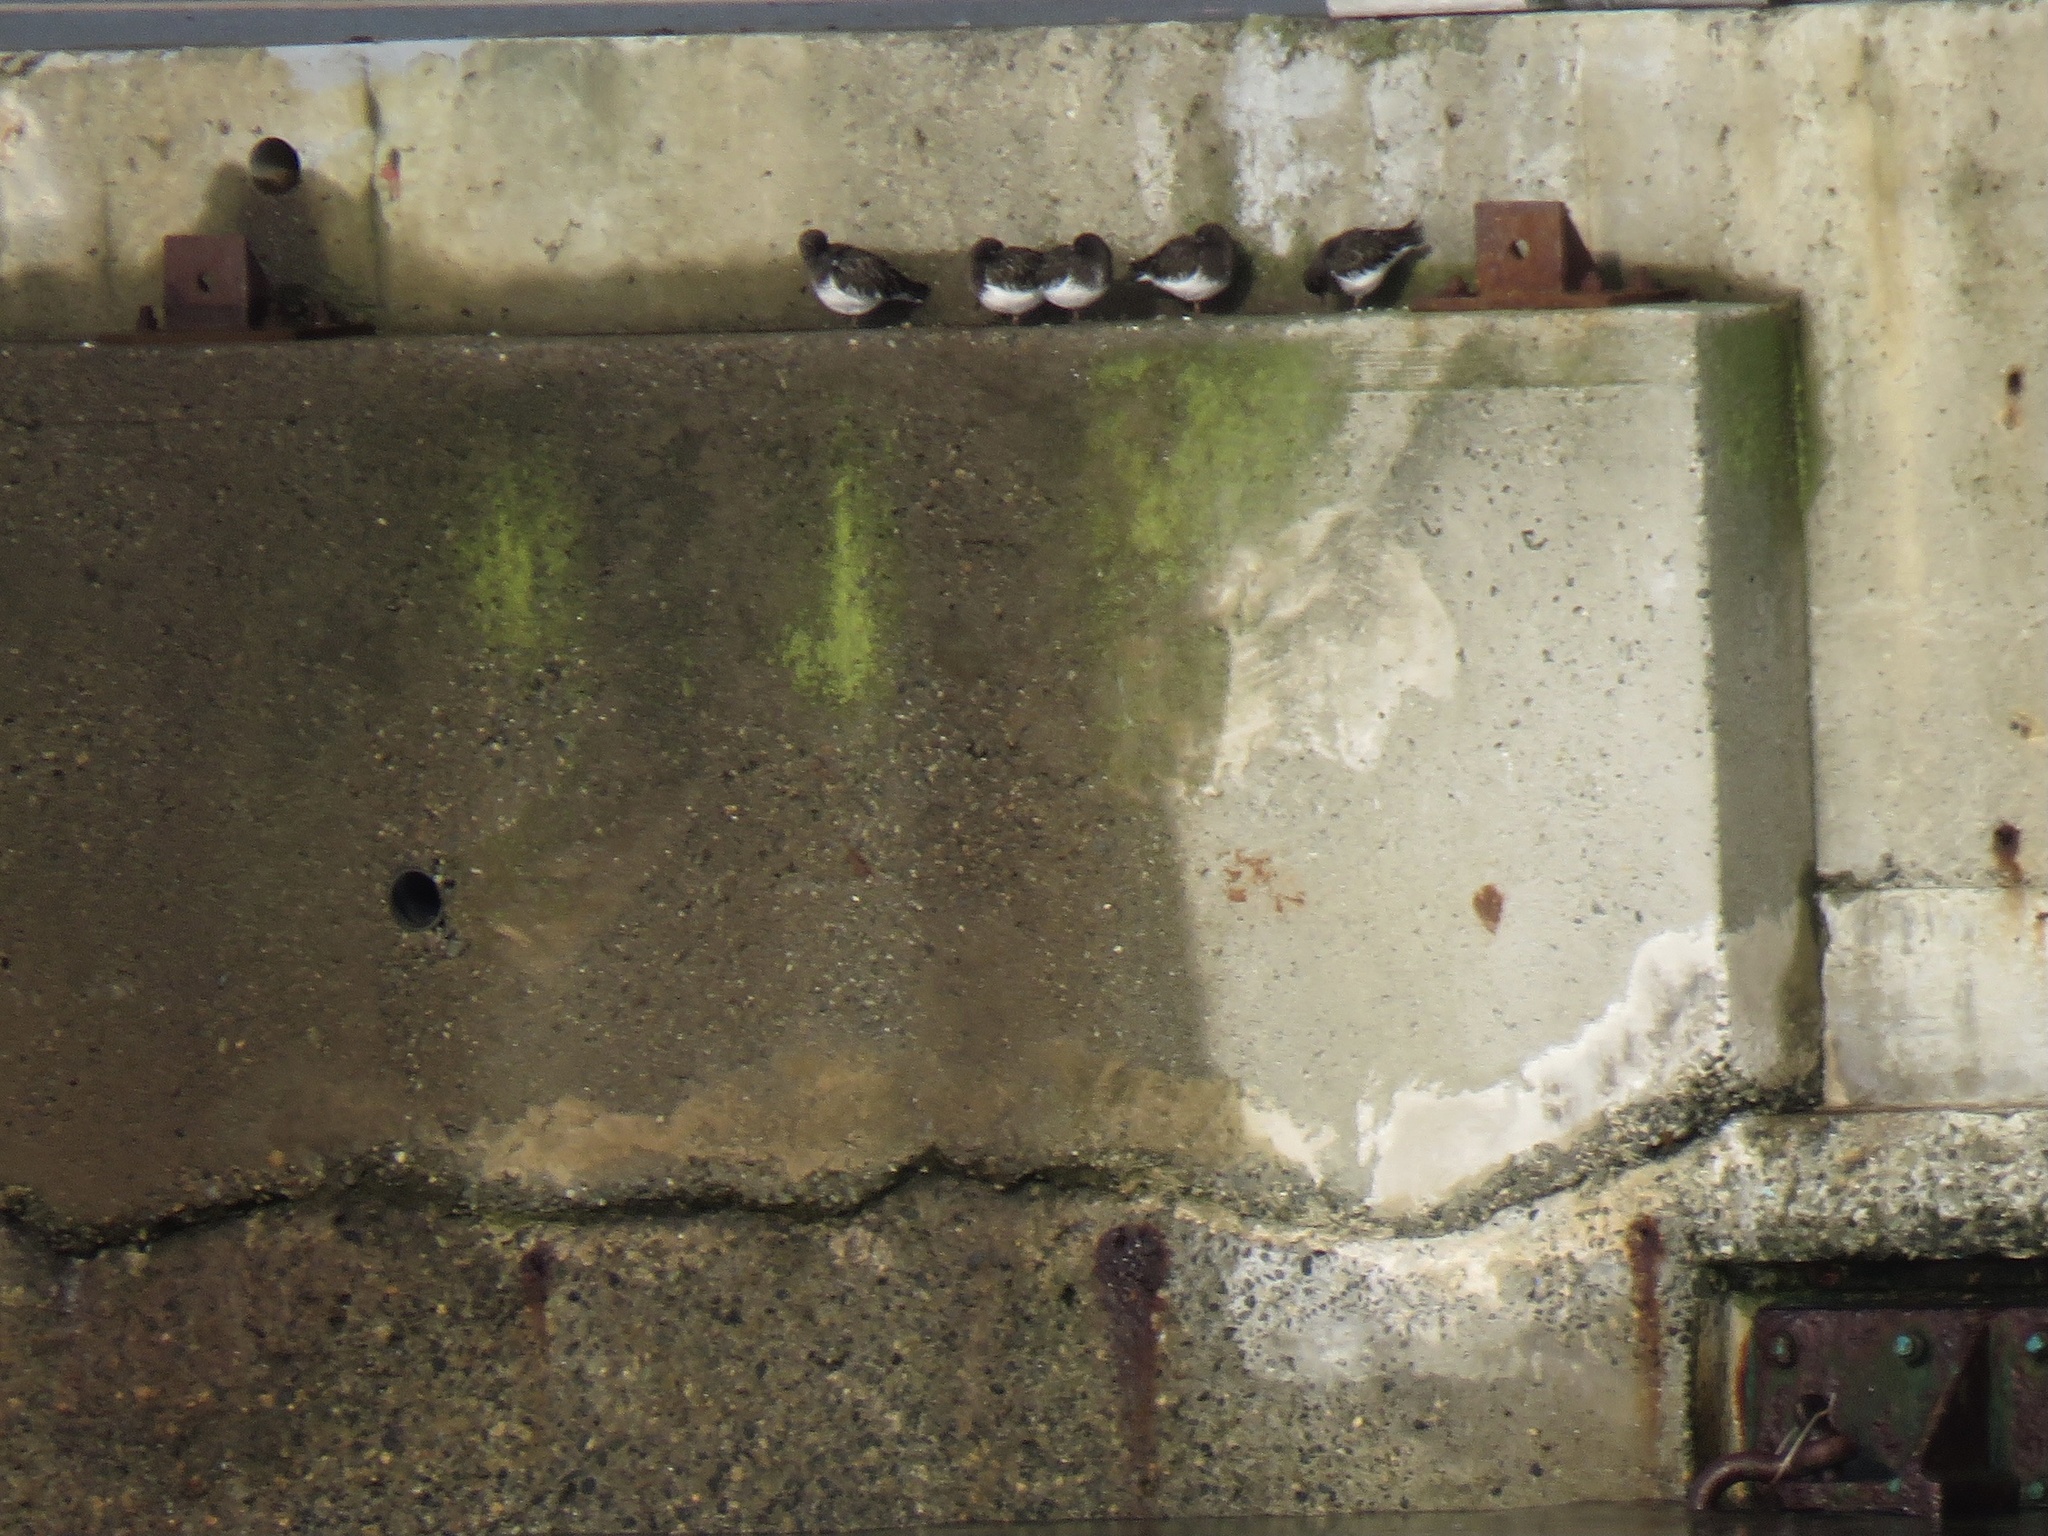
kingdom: Animalia
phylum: Chordata
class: Aves
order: Charadriiformes
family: Scolopacidae
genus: Arenaria
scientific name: Arenaria melanocephala
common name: Black turnstone
